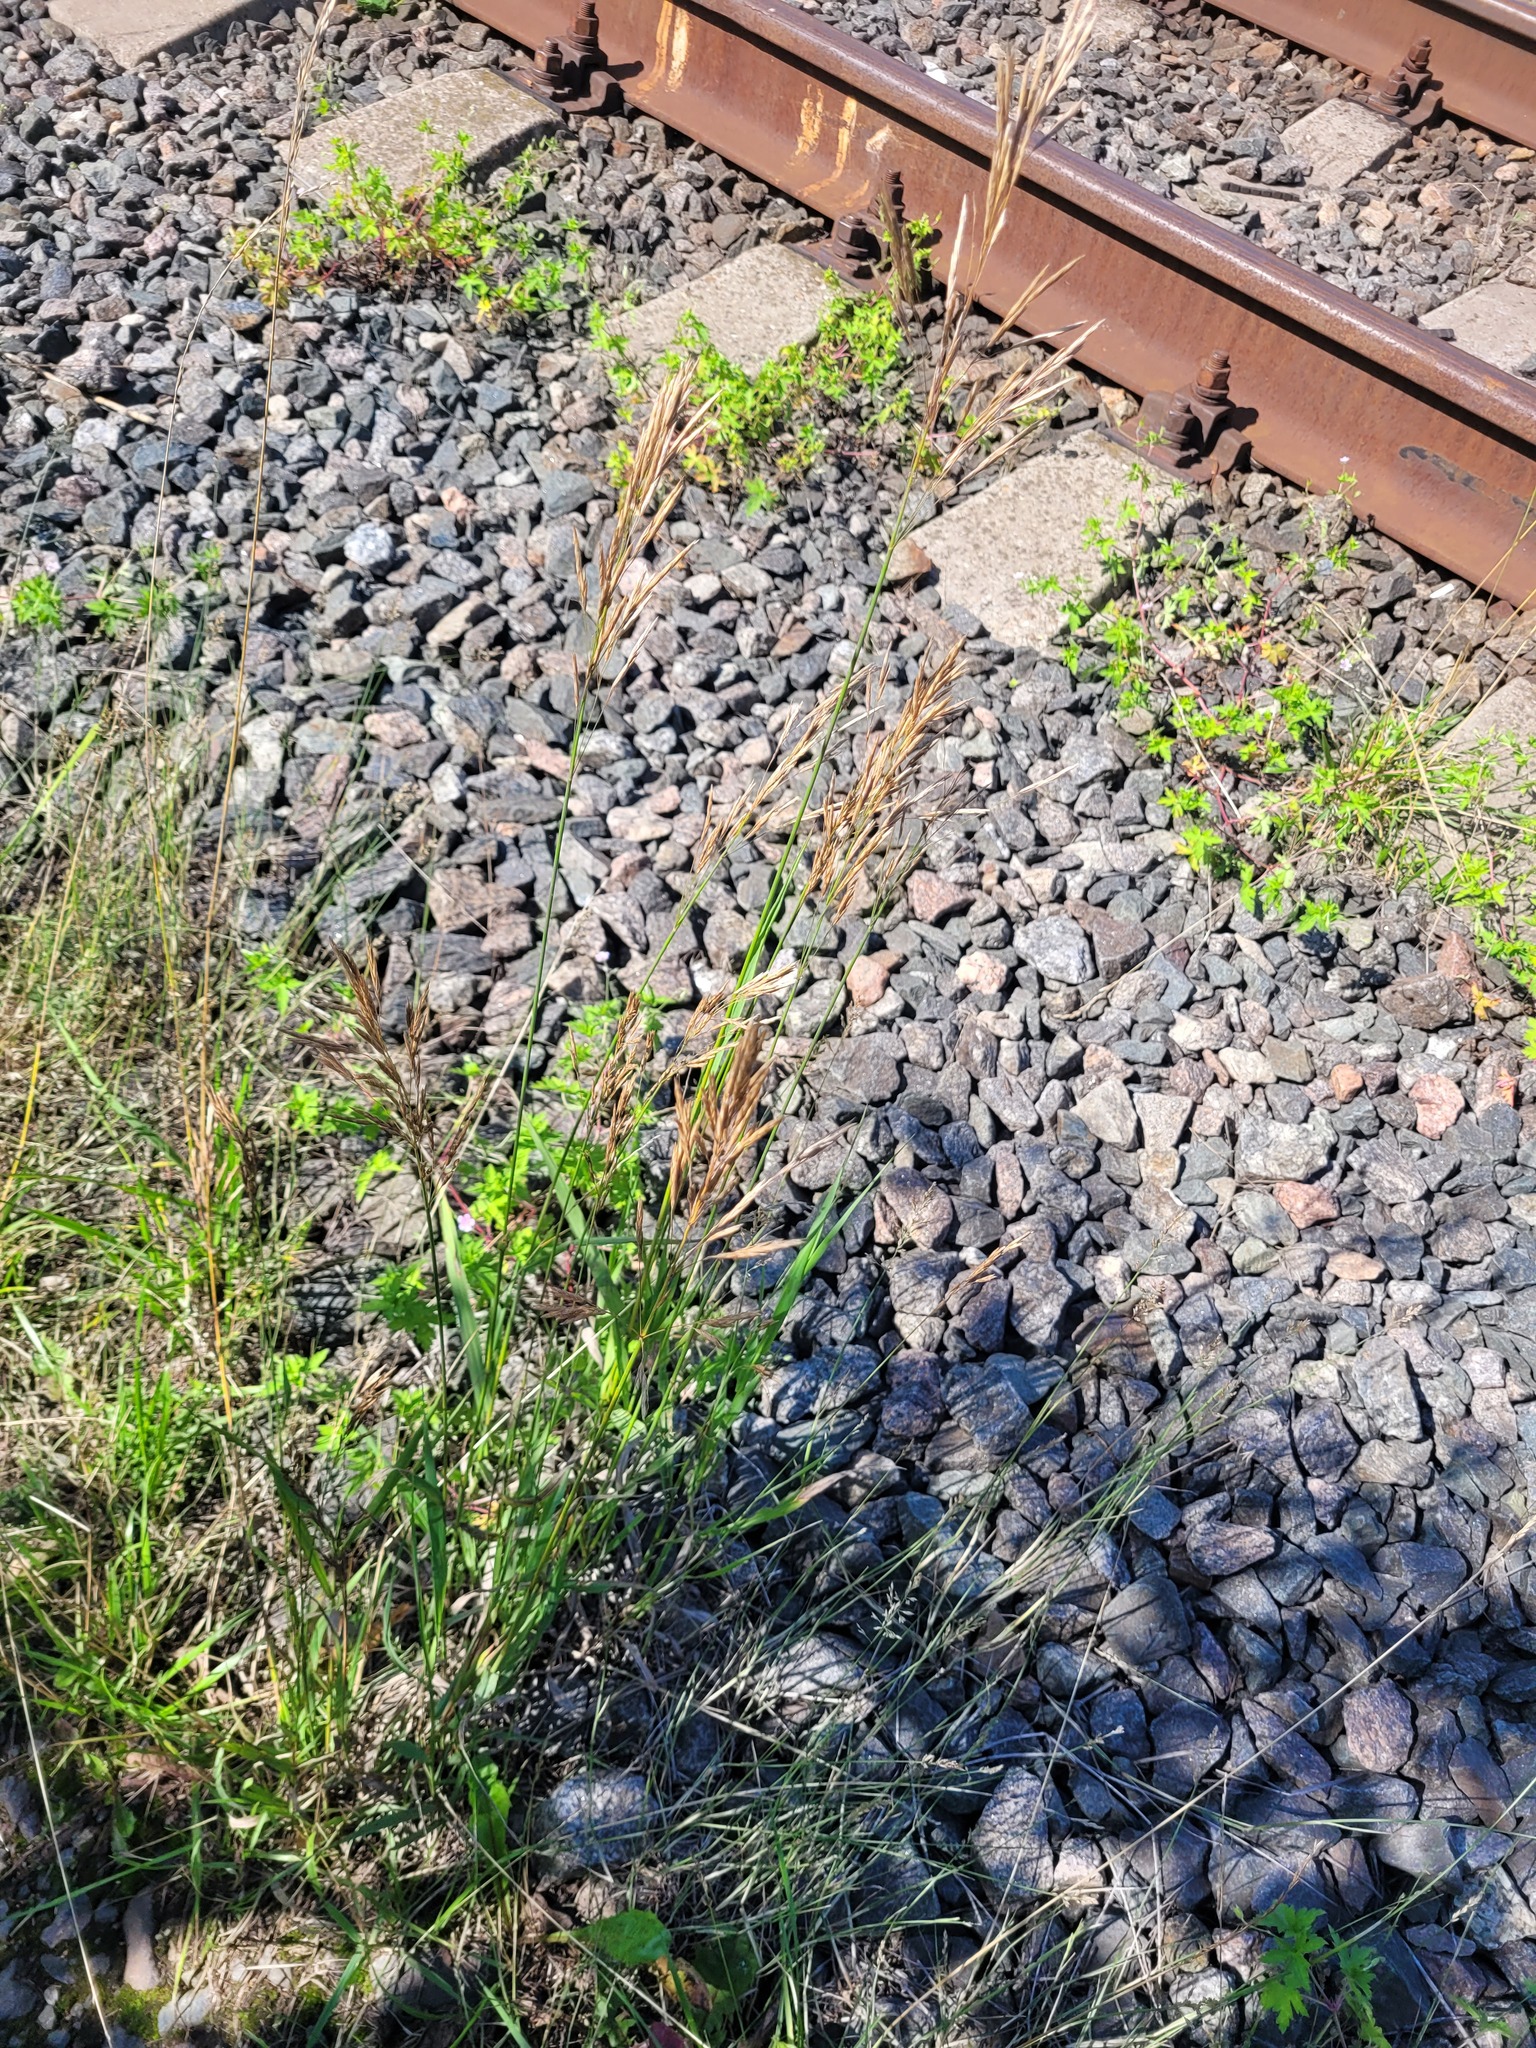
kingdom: Plantae
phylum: Tracheophyta
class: Liliopsida
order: Poales
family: Poaceae
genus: Bromus
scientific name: Bromus inermis
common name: Smooth brome
